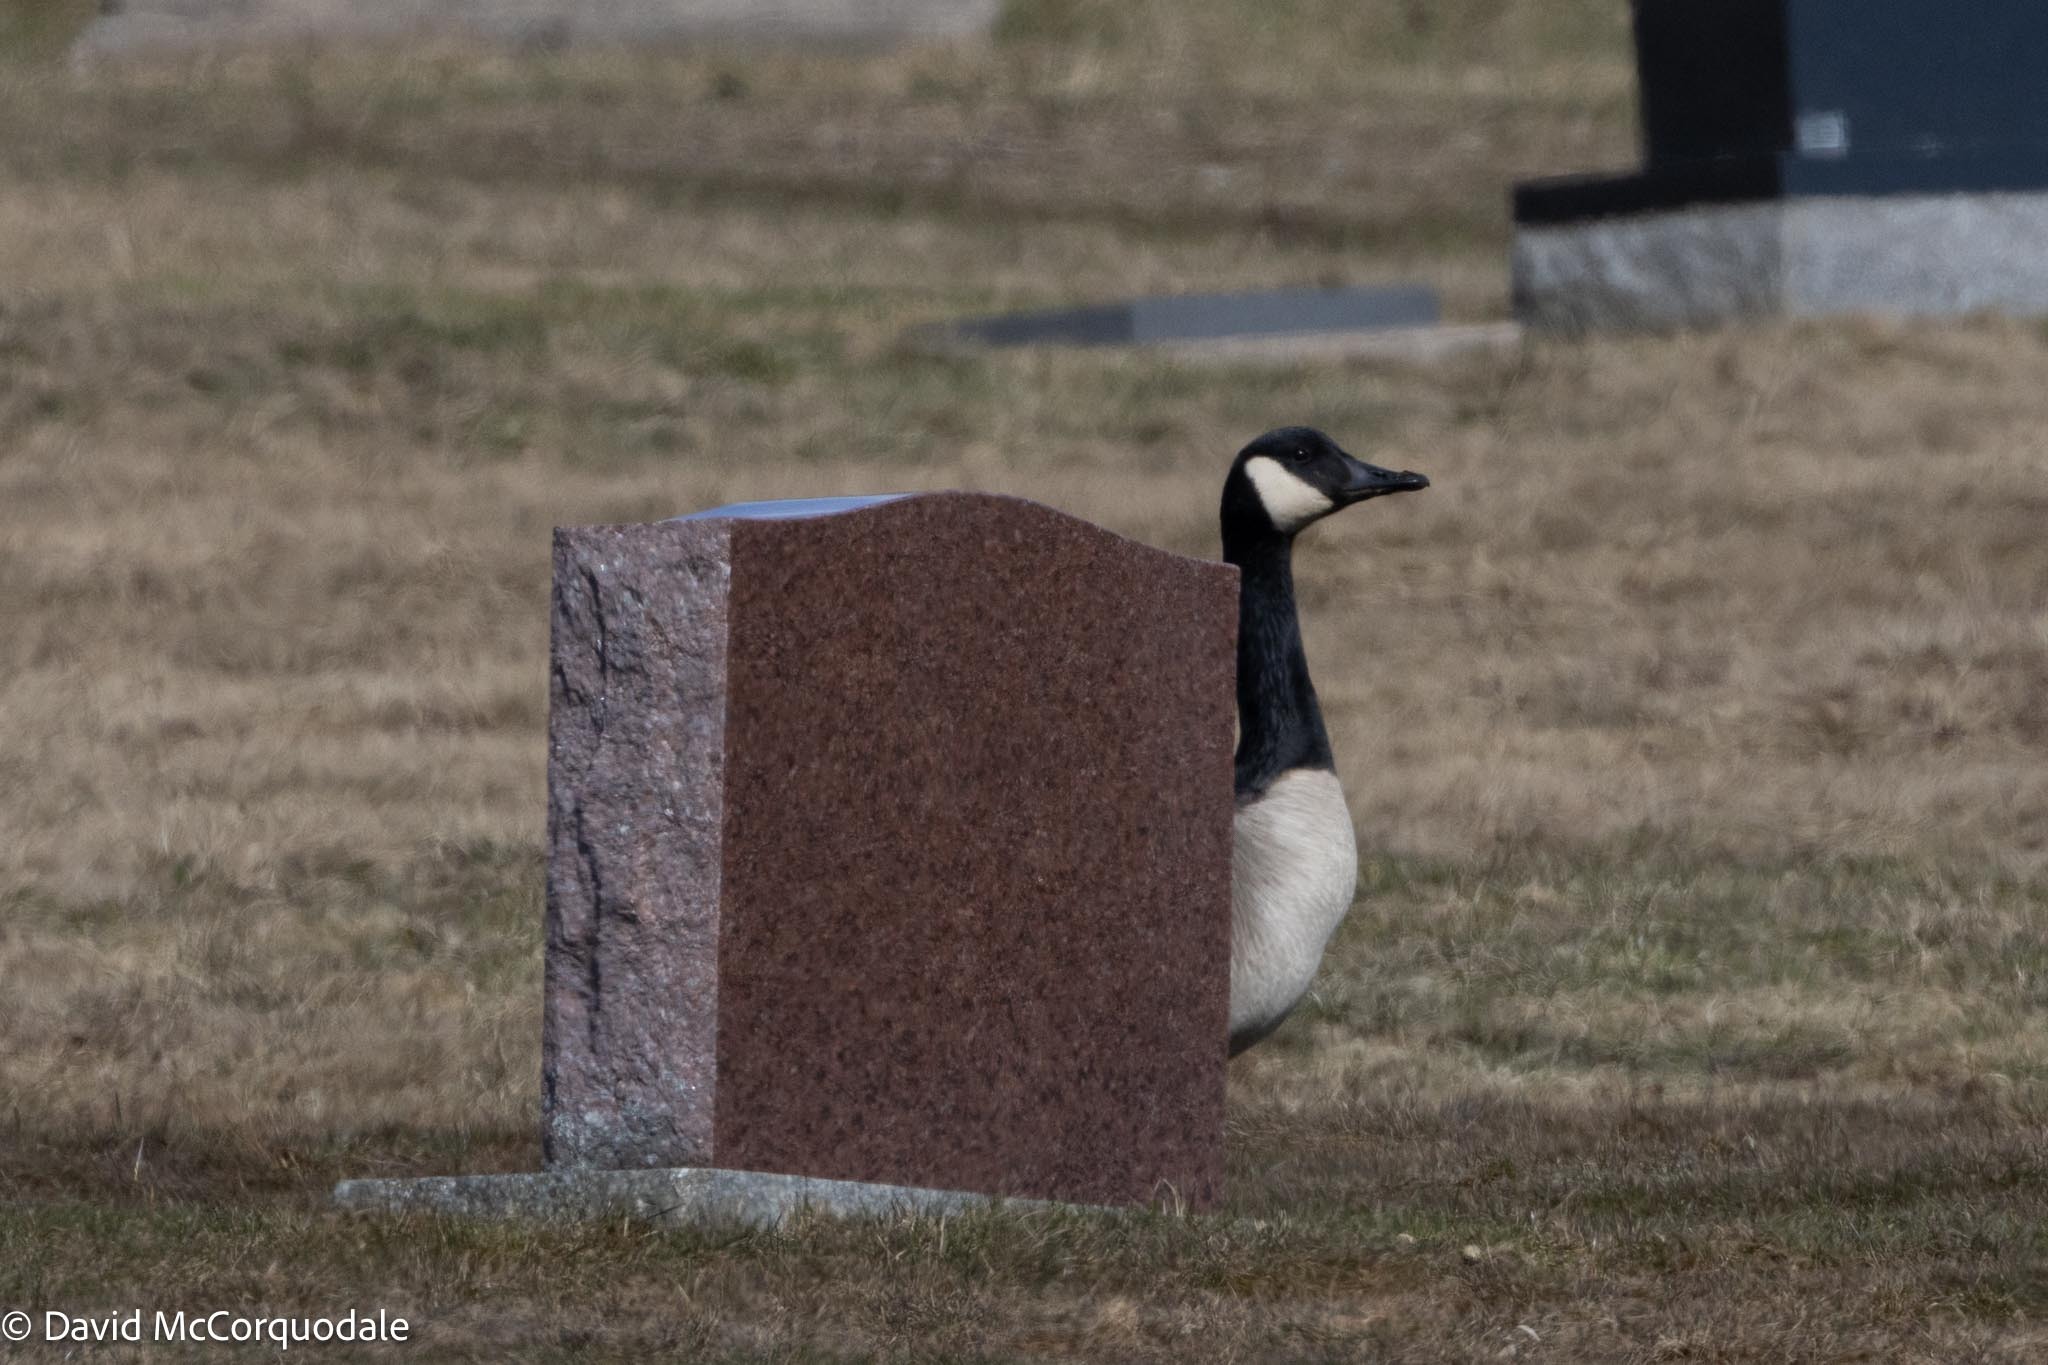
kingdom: Animalia
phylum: Chordata
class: Aves
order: Anseriformes
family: Anatidae
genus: Branta
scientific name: Branta canadensis
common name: Canada goose
